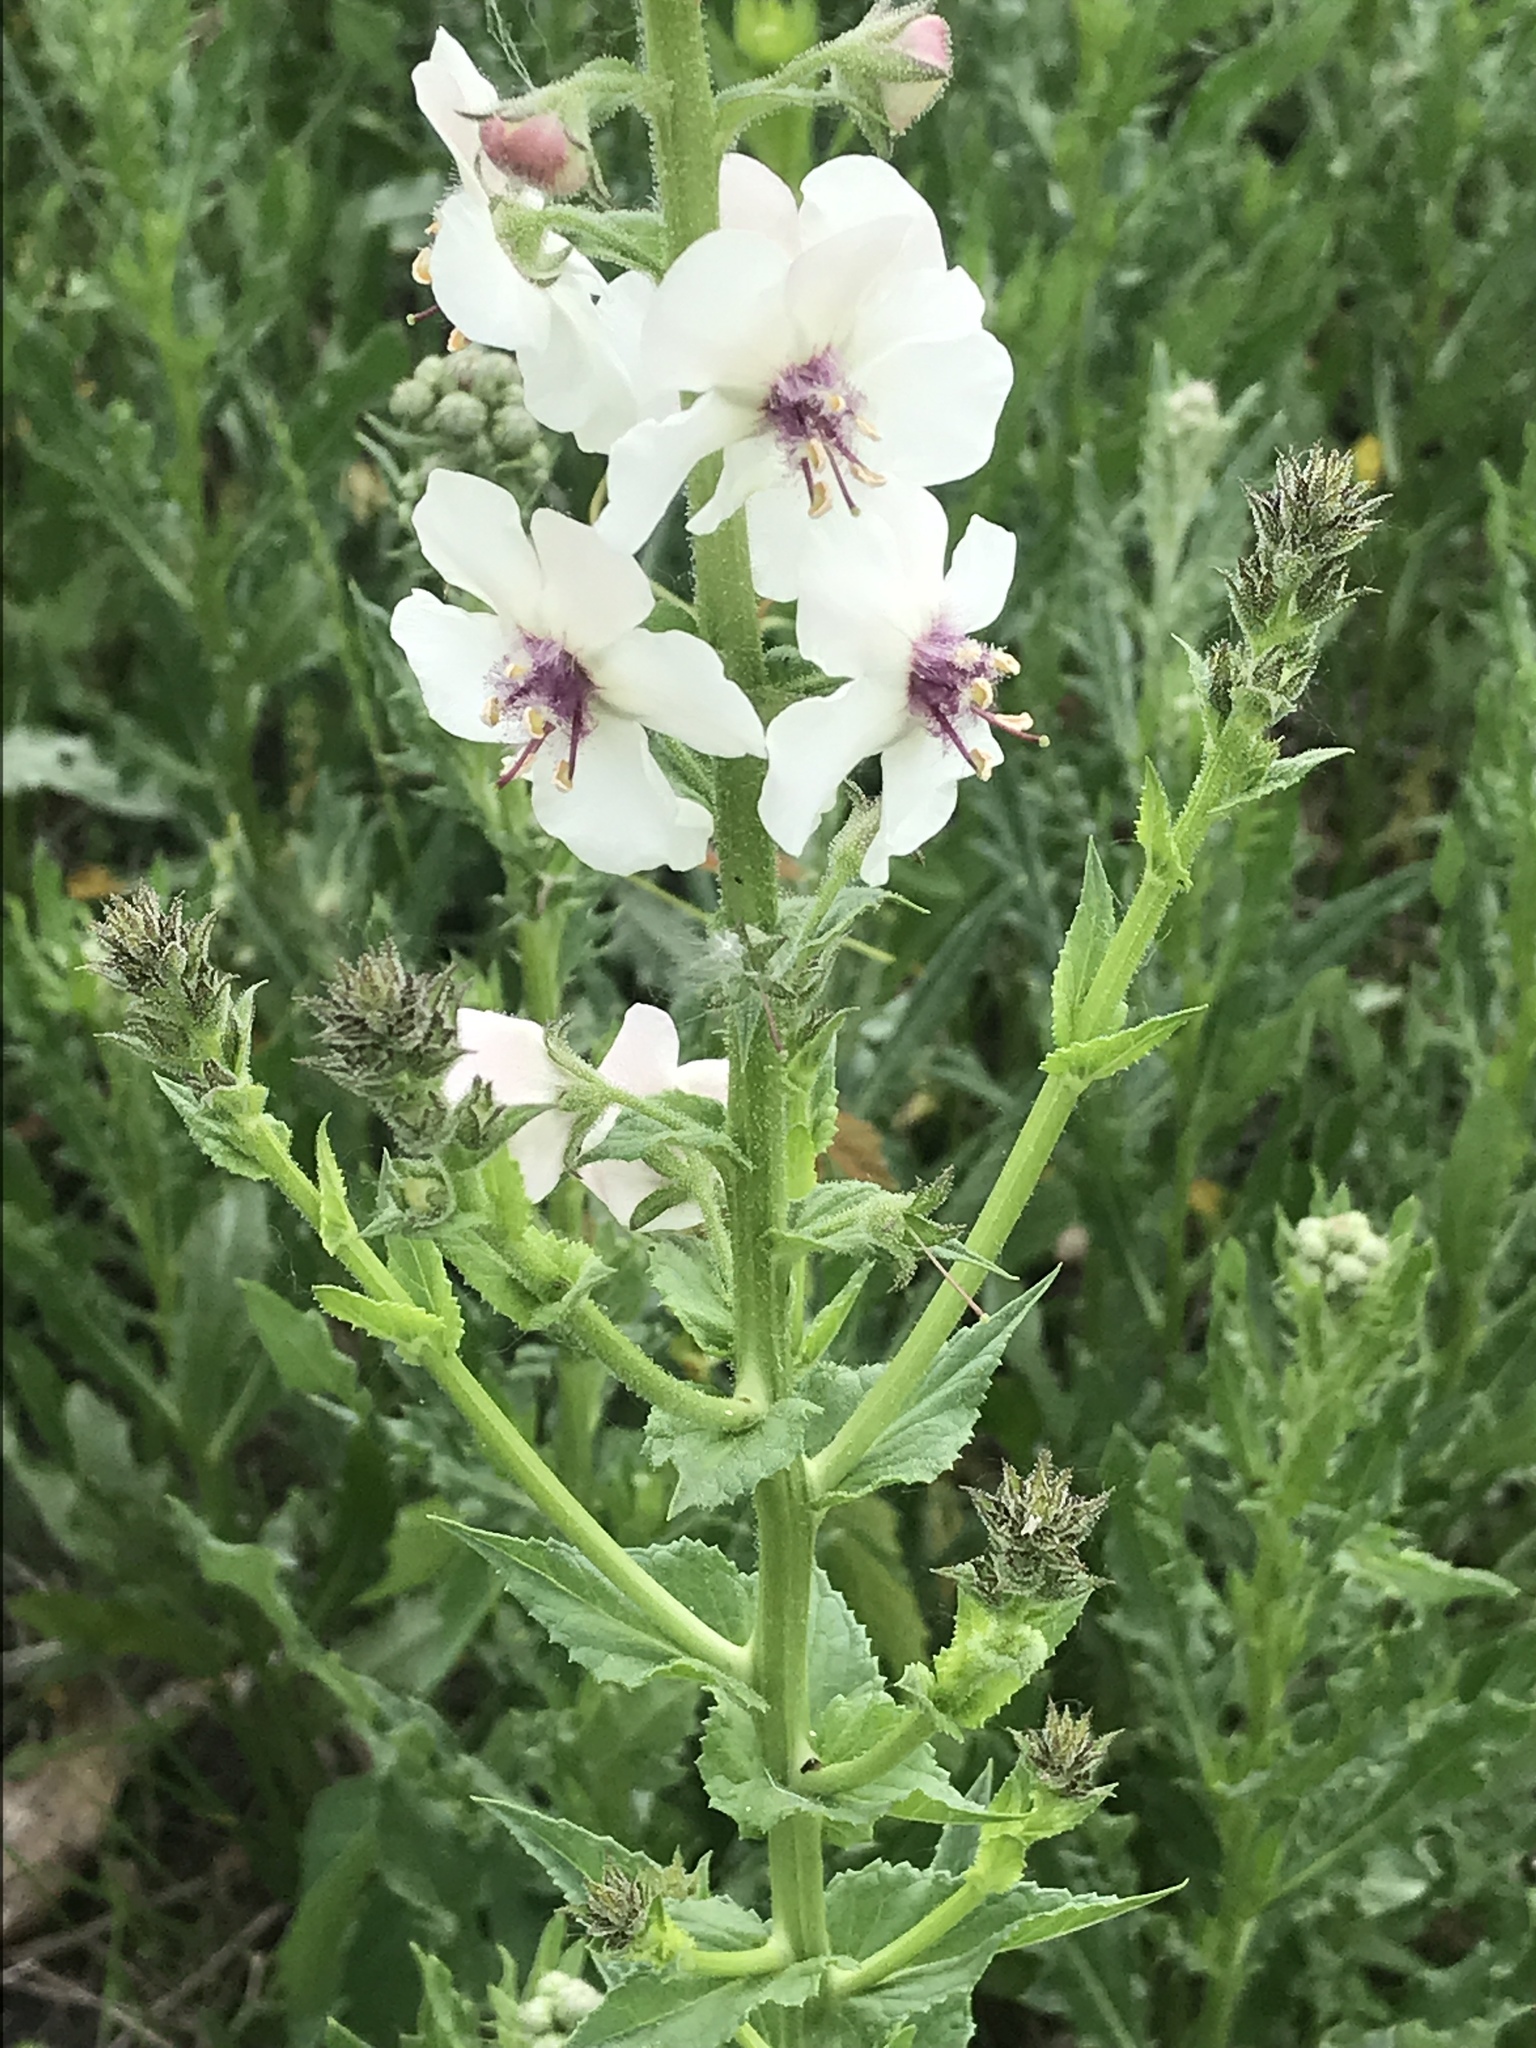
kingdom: Plantae
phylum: Tracheophyta
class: Magnoliopsida
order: Lamiales
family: Scrophulariaceae
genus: Verbascum
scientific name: Verbascum blattaria
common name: Moth mullein
